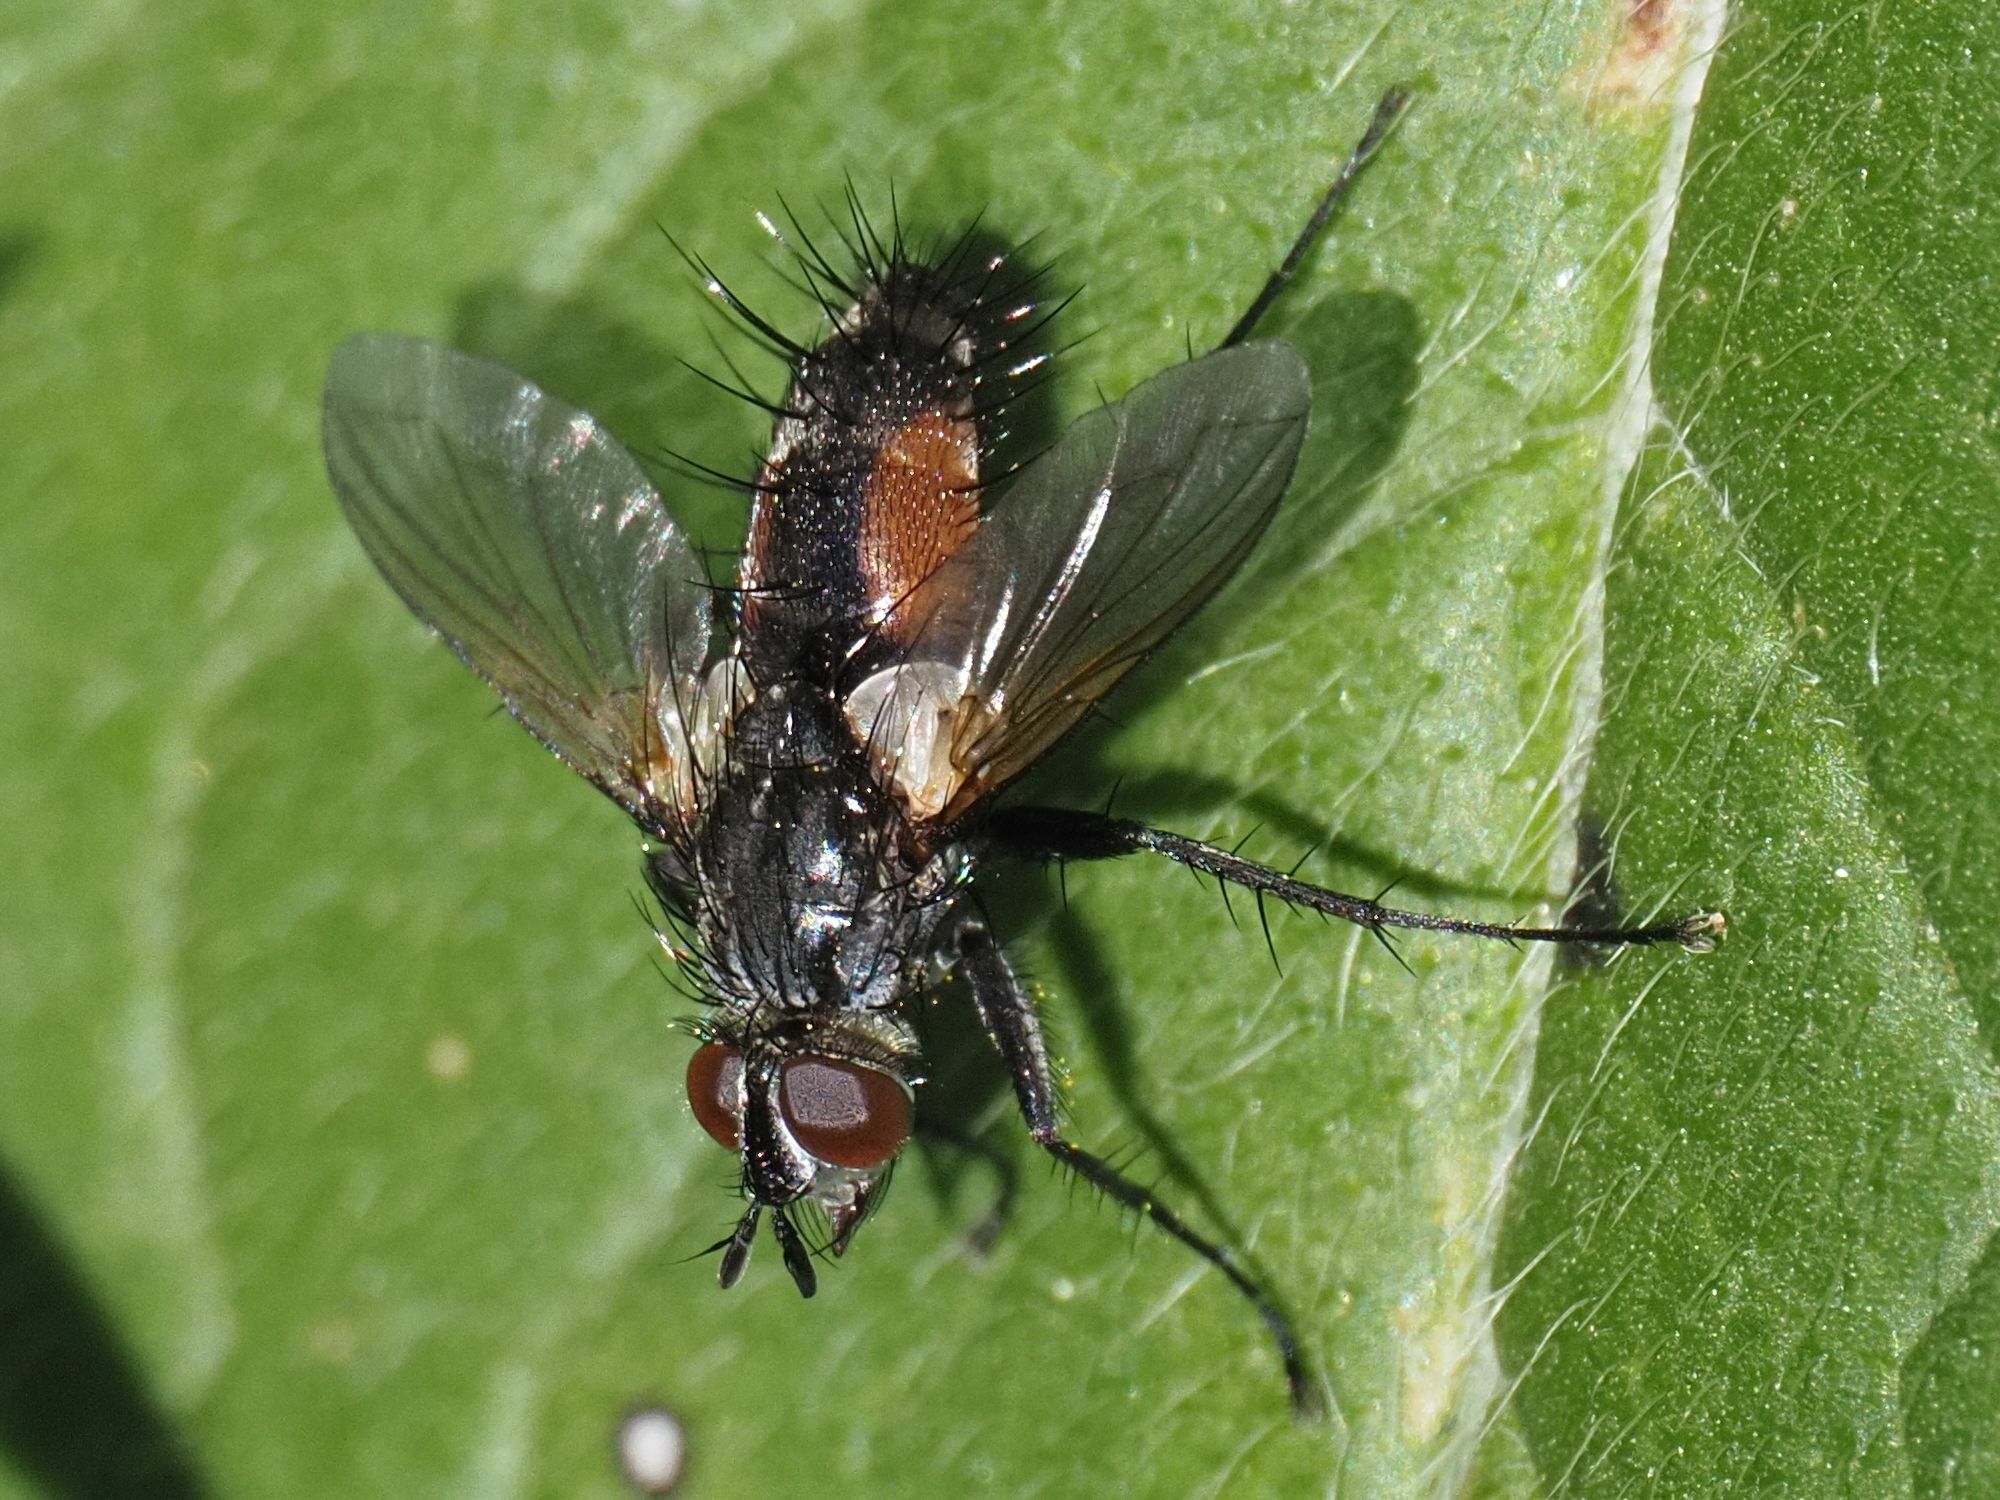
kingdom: Animalia
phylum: Arthropoda
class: Insecta
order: Diptera
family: Tachinidae
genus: Eriothrix
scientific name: Eriothrix rufomaculatus
